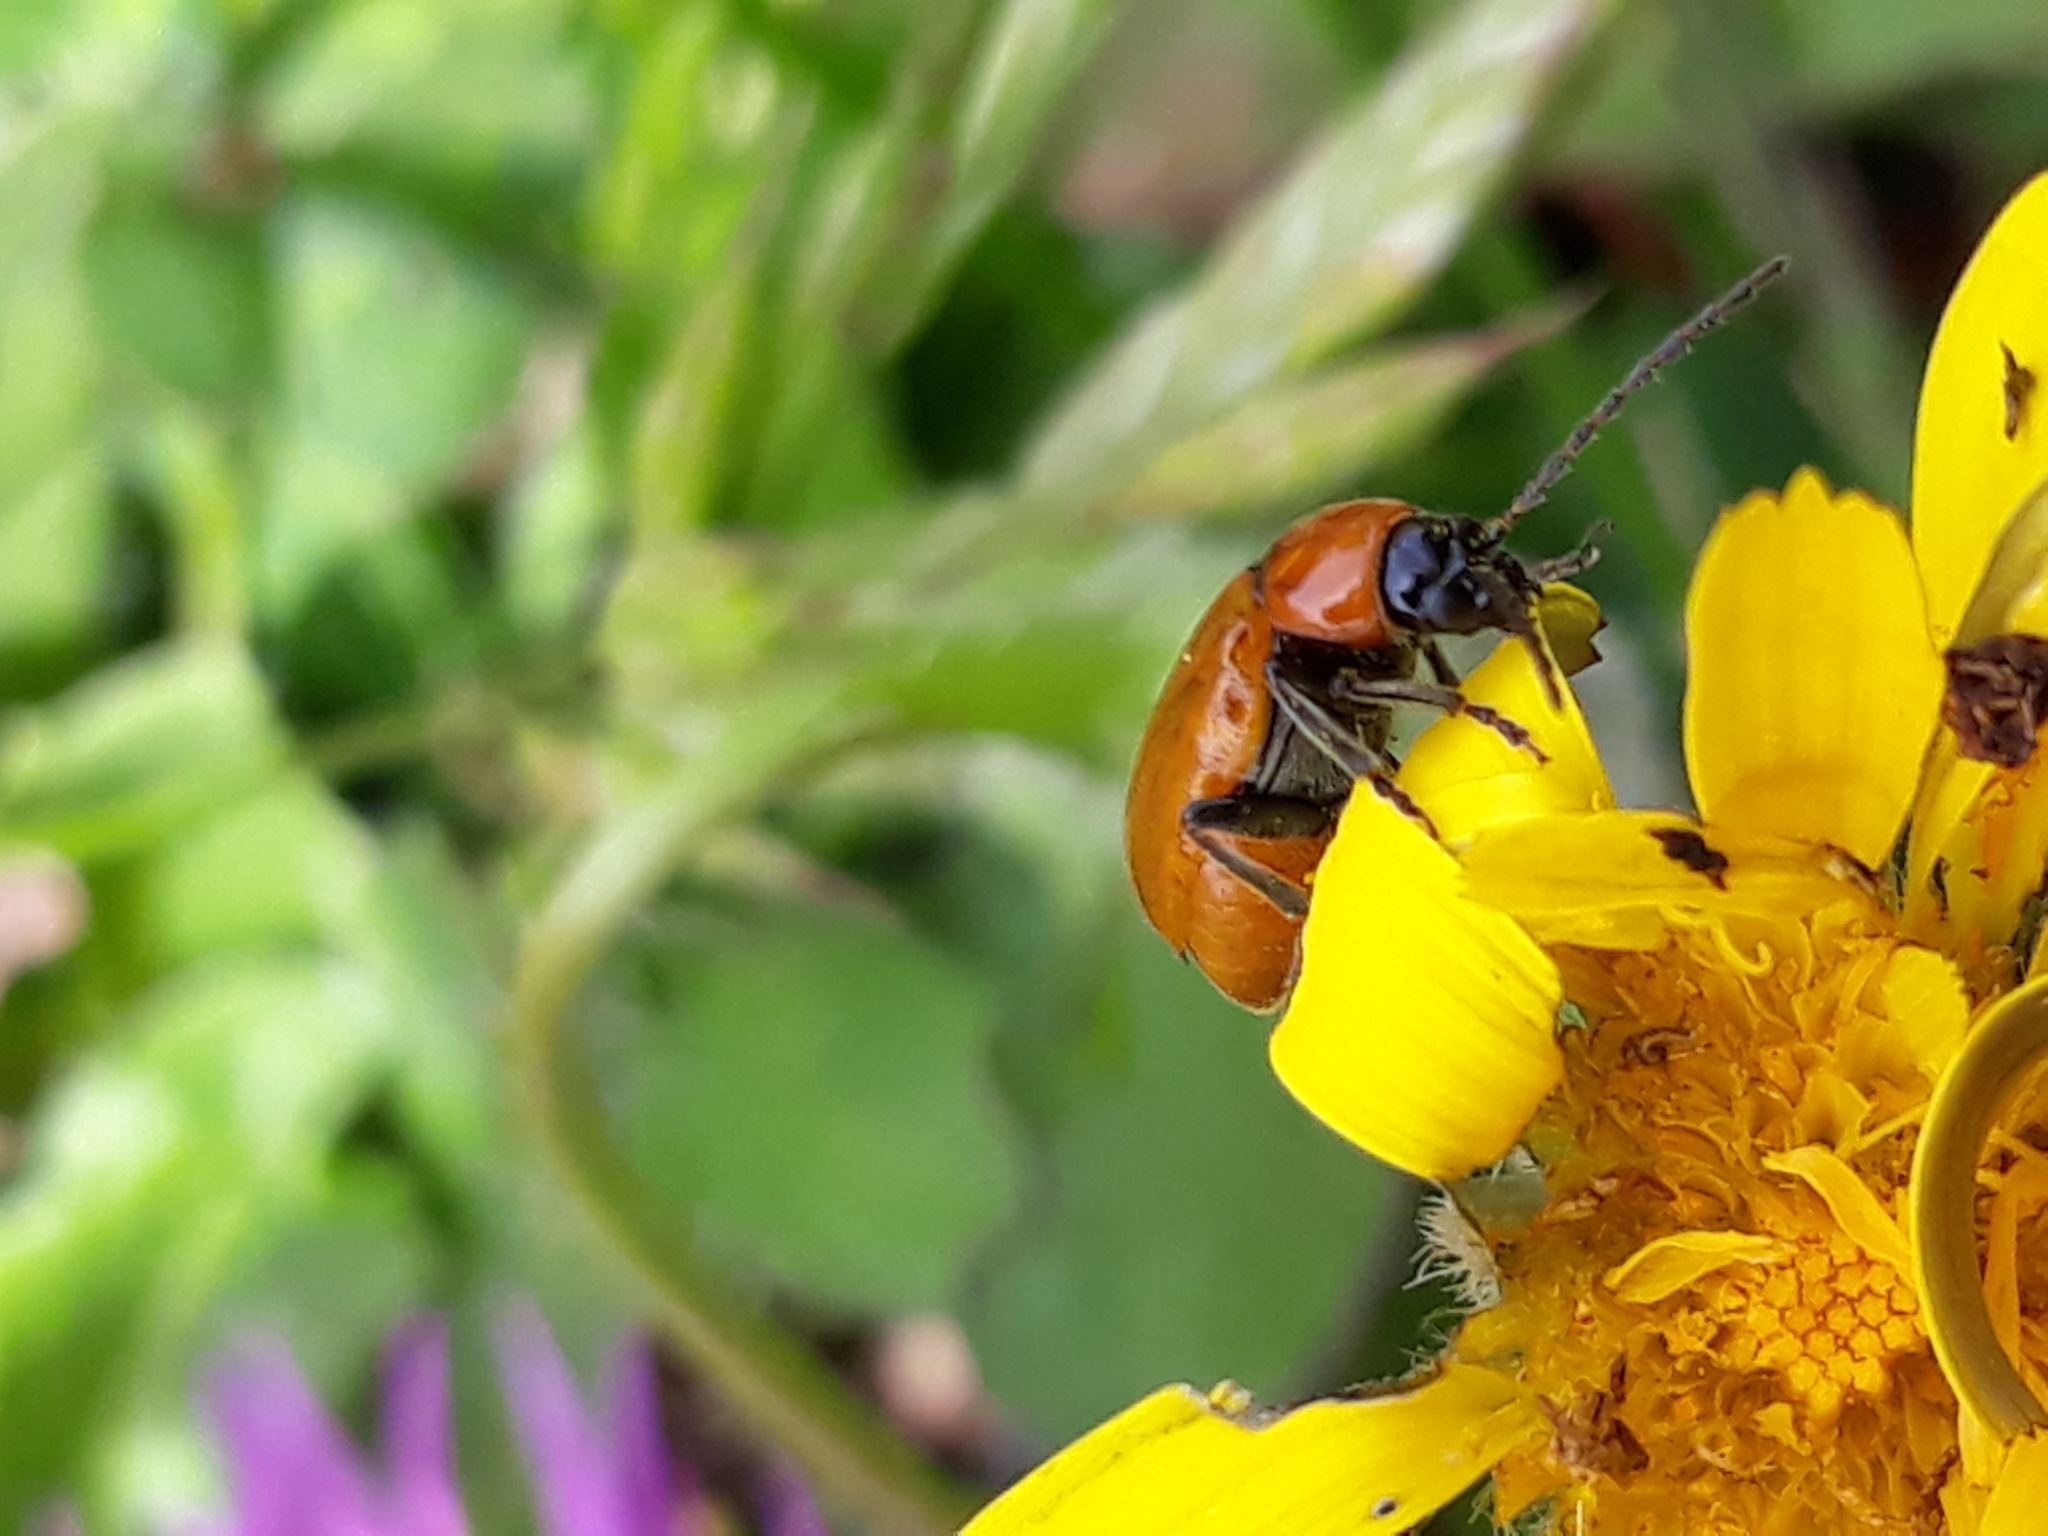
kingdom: Animalia
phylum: Arthropoda
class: Insecta
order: Coleoptera
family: Chrysomelidae
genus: Exosoma
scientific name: Exosoma lusitanicum
